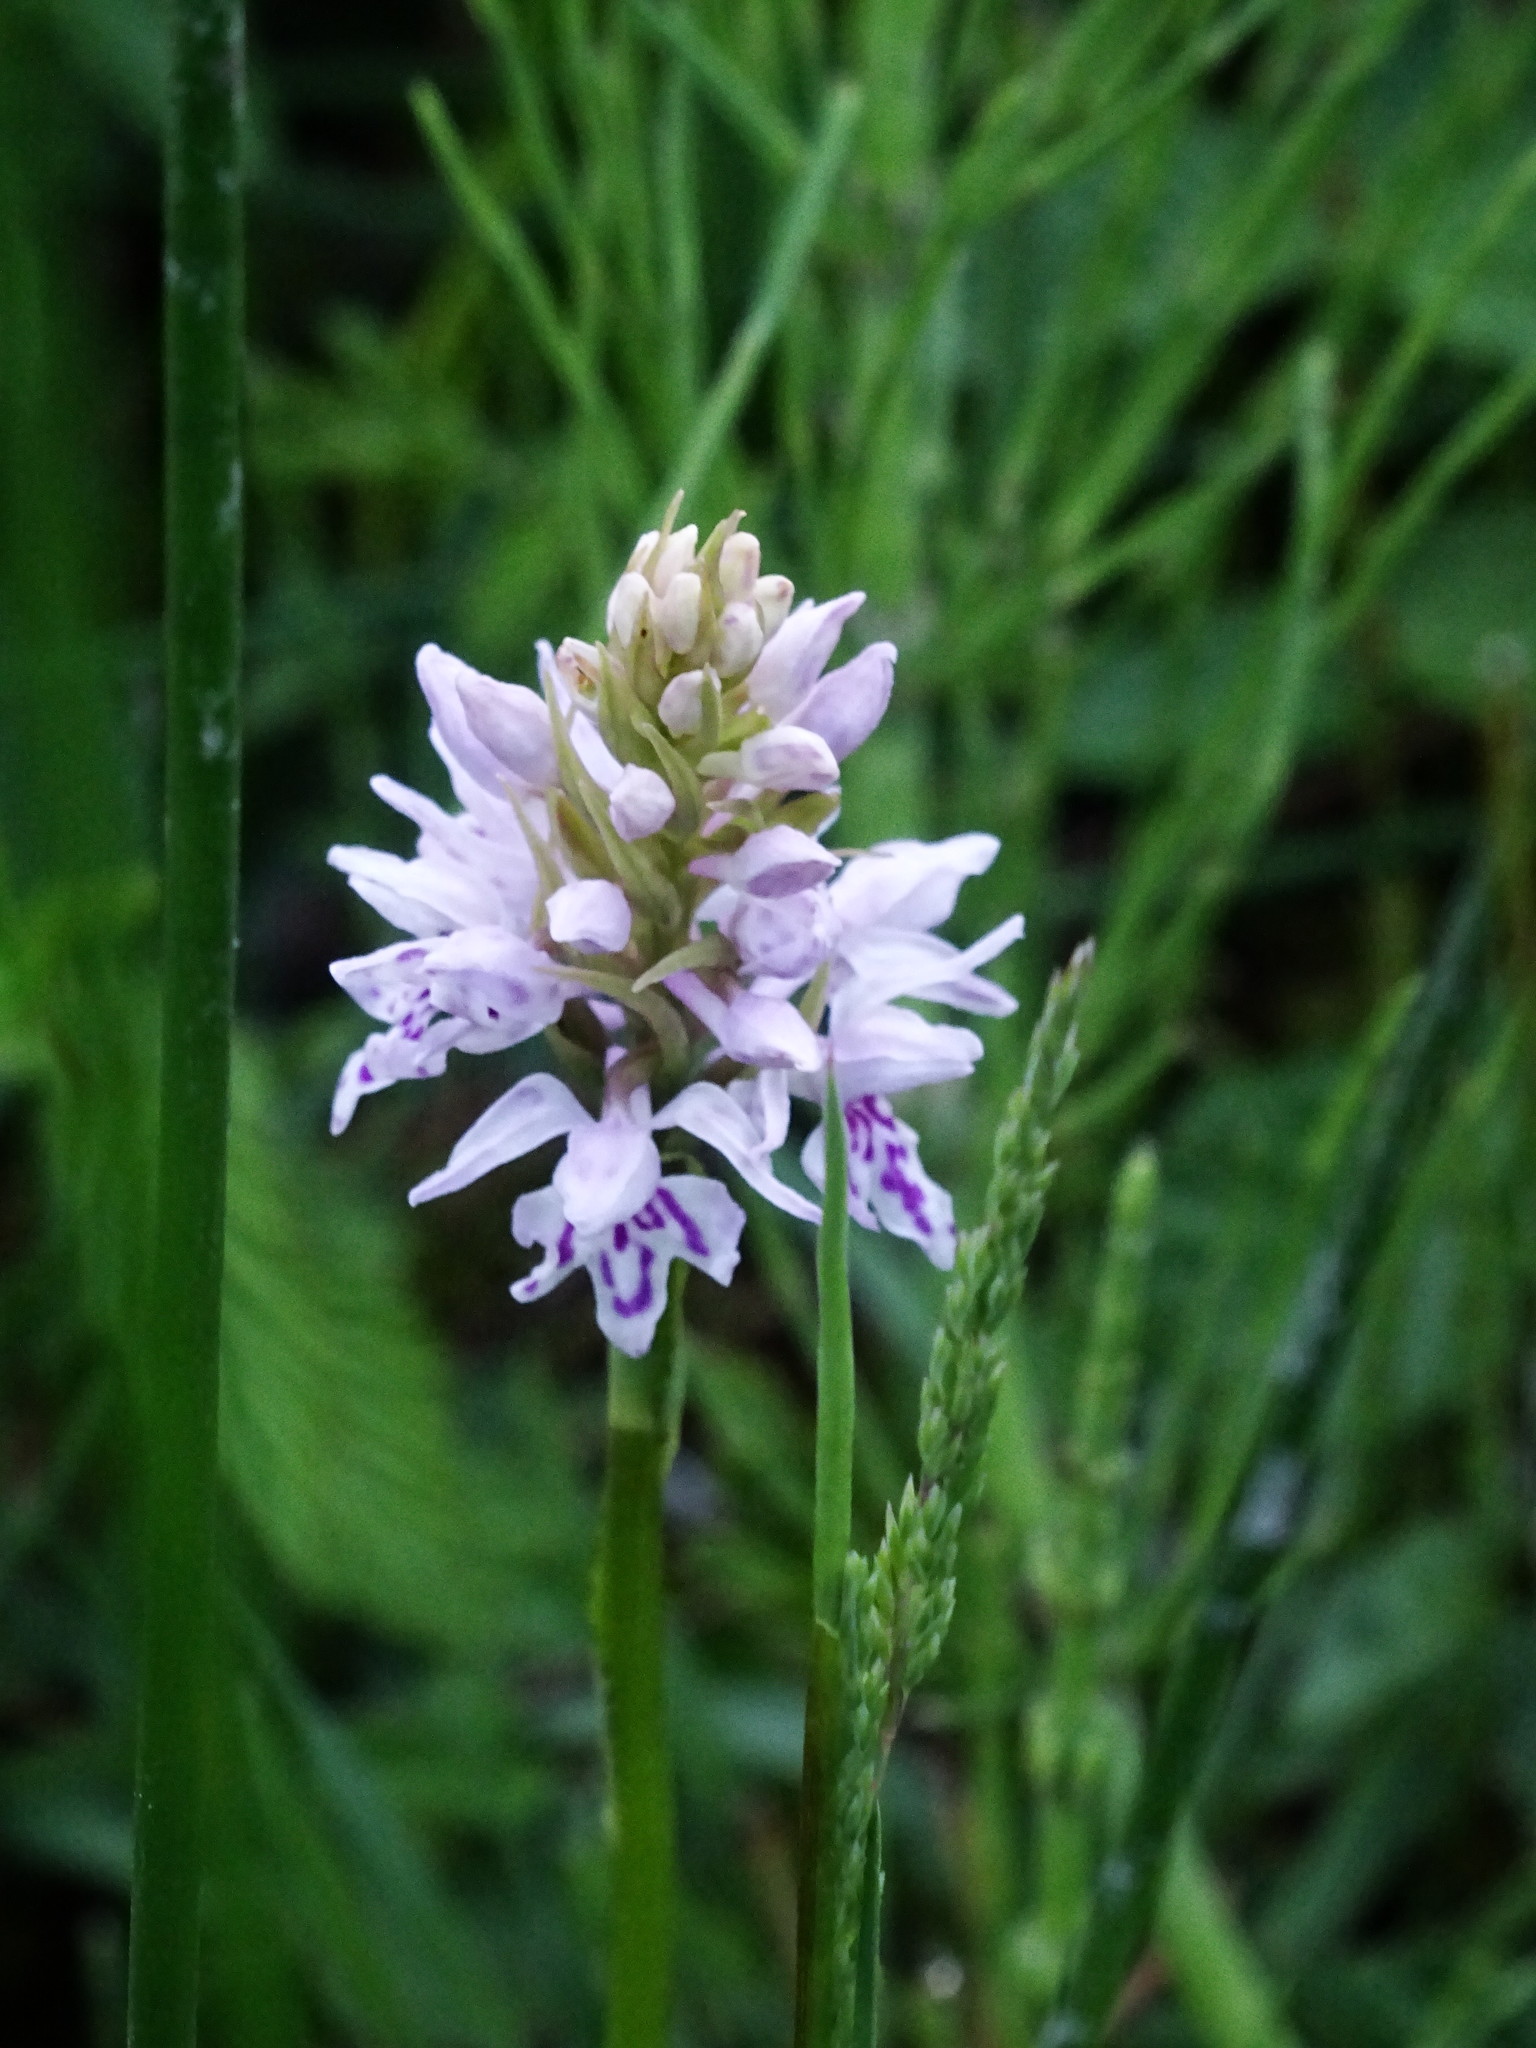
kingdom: Plantae
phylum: Tracheophyta
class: Liliopsida
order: Asparagales
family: Orchidaceae
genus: Dactylorhiza
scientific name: Dactylorhiza maculata
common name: Heath spotted-orchid
